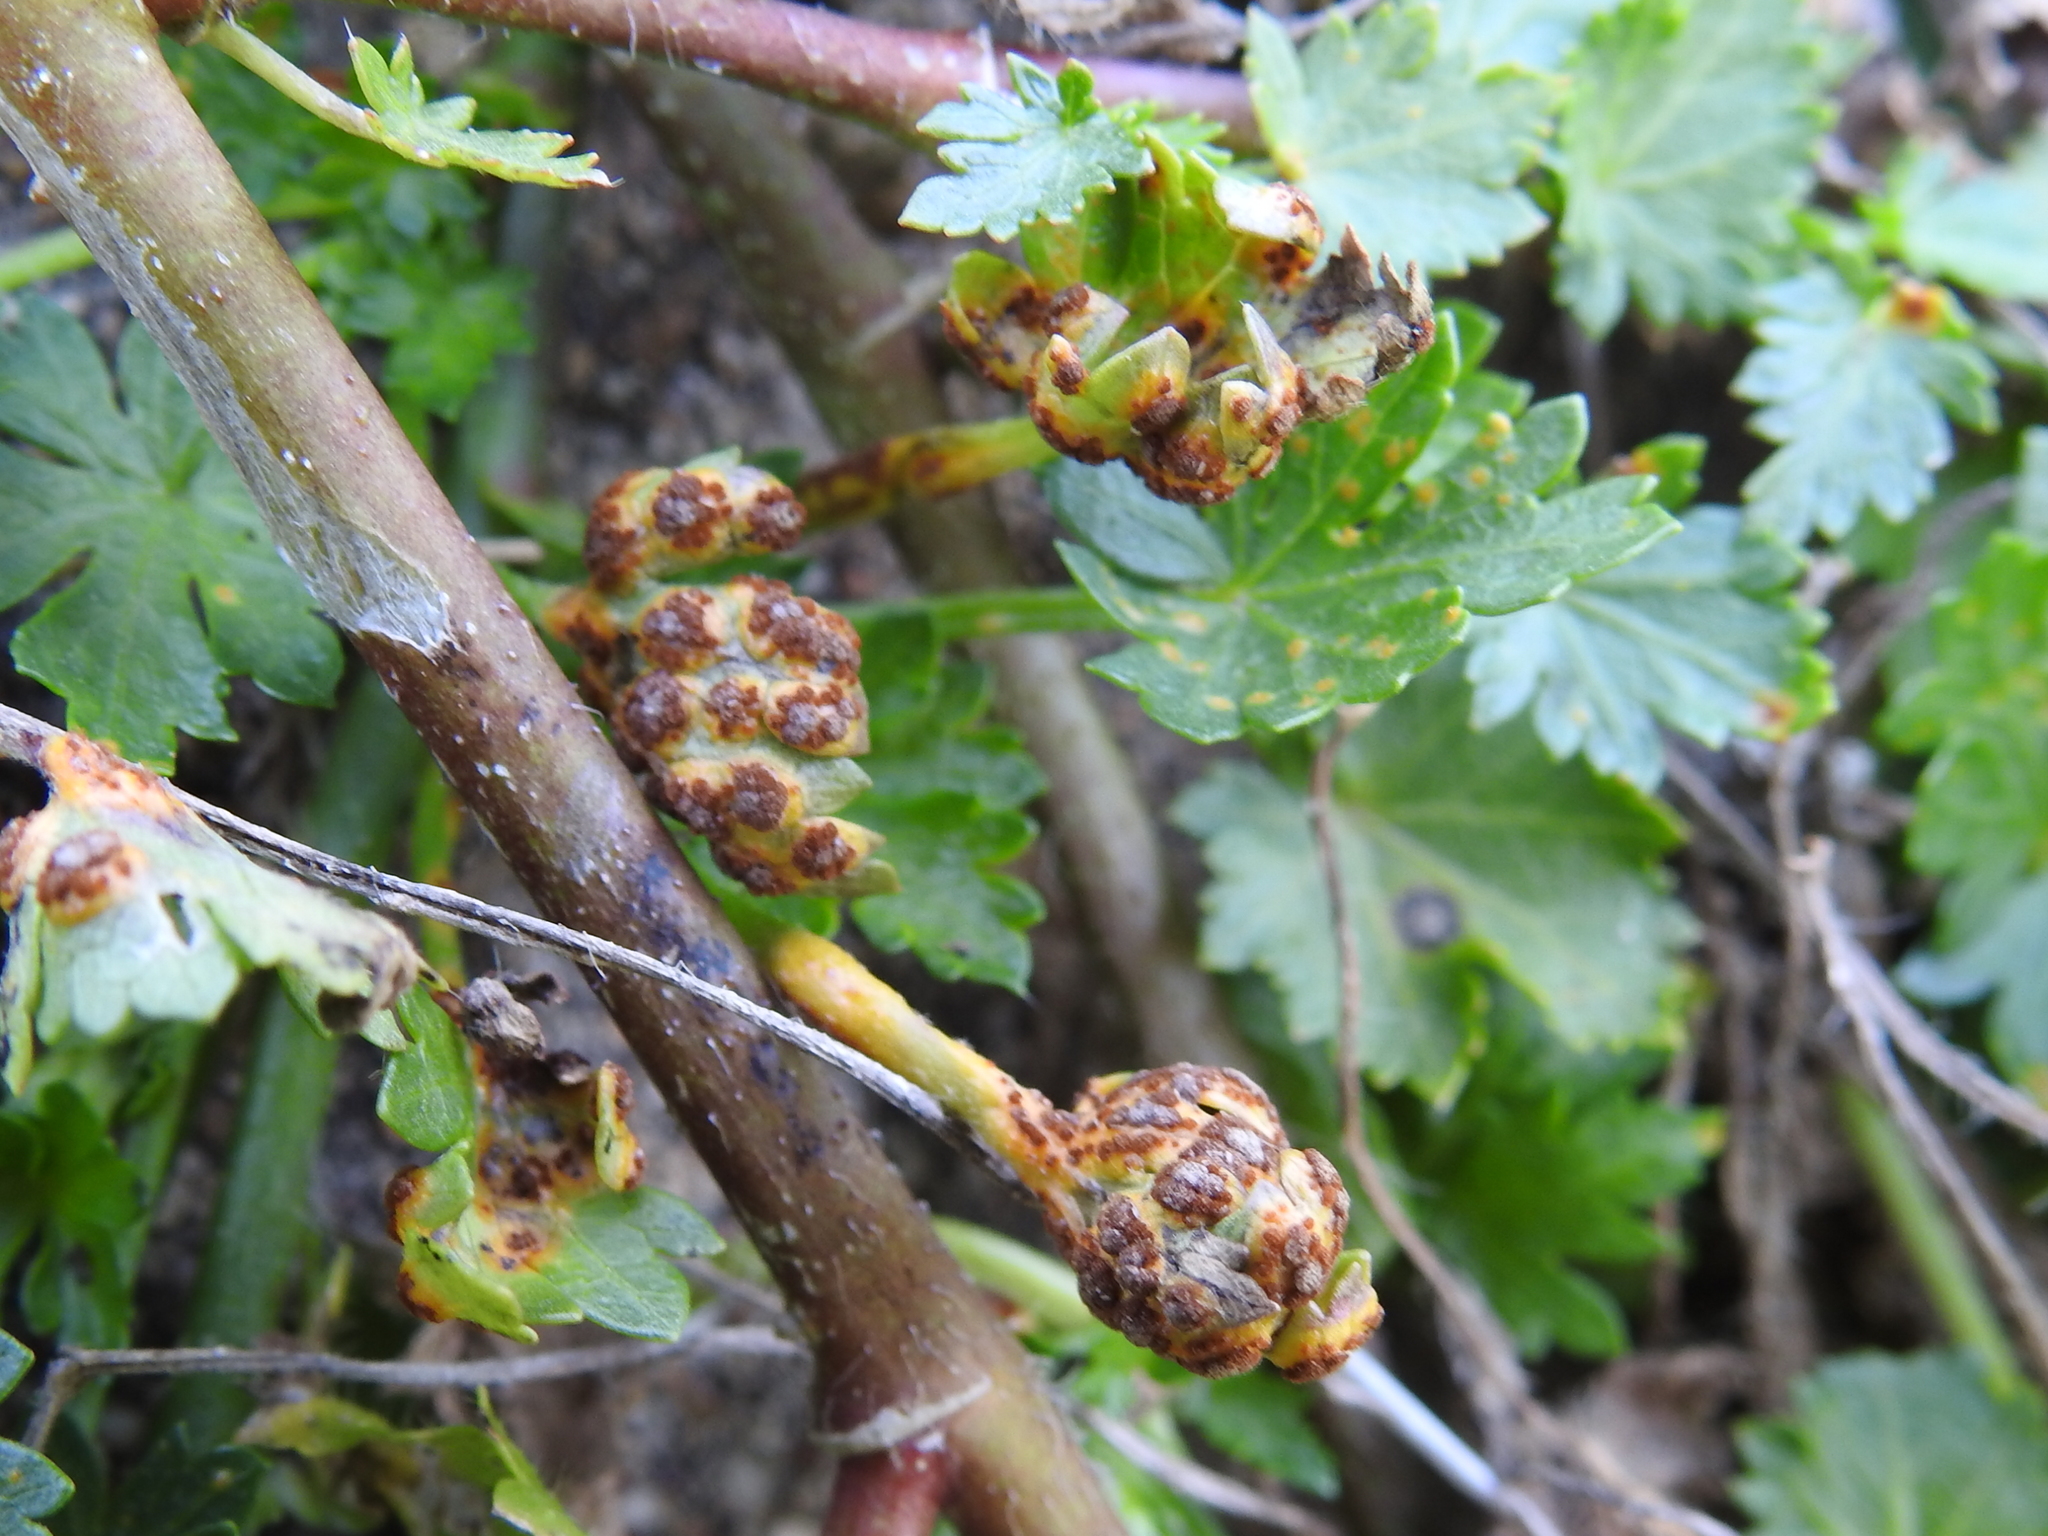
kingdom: Fungi
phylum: Basidiomycota
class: Pucciniomycetes
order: Pucciniales
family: Pucciniaceae
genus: Puccinia
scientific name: Puccinia modiolae
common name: Rust of bristlemallow
